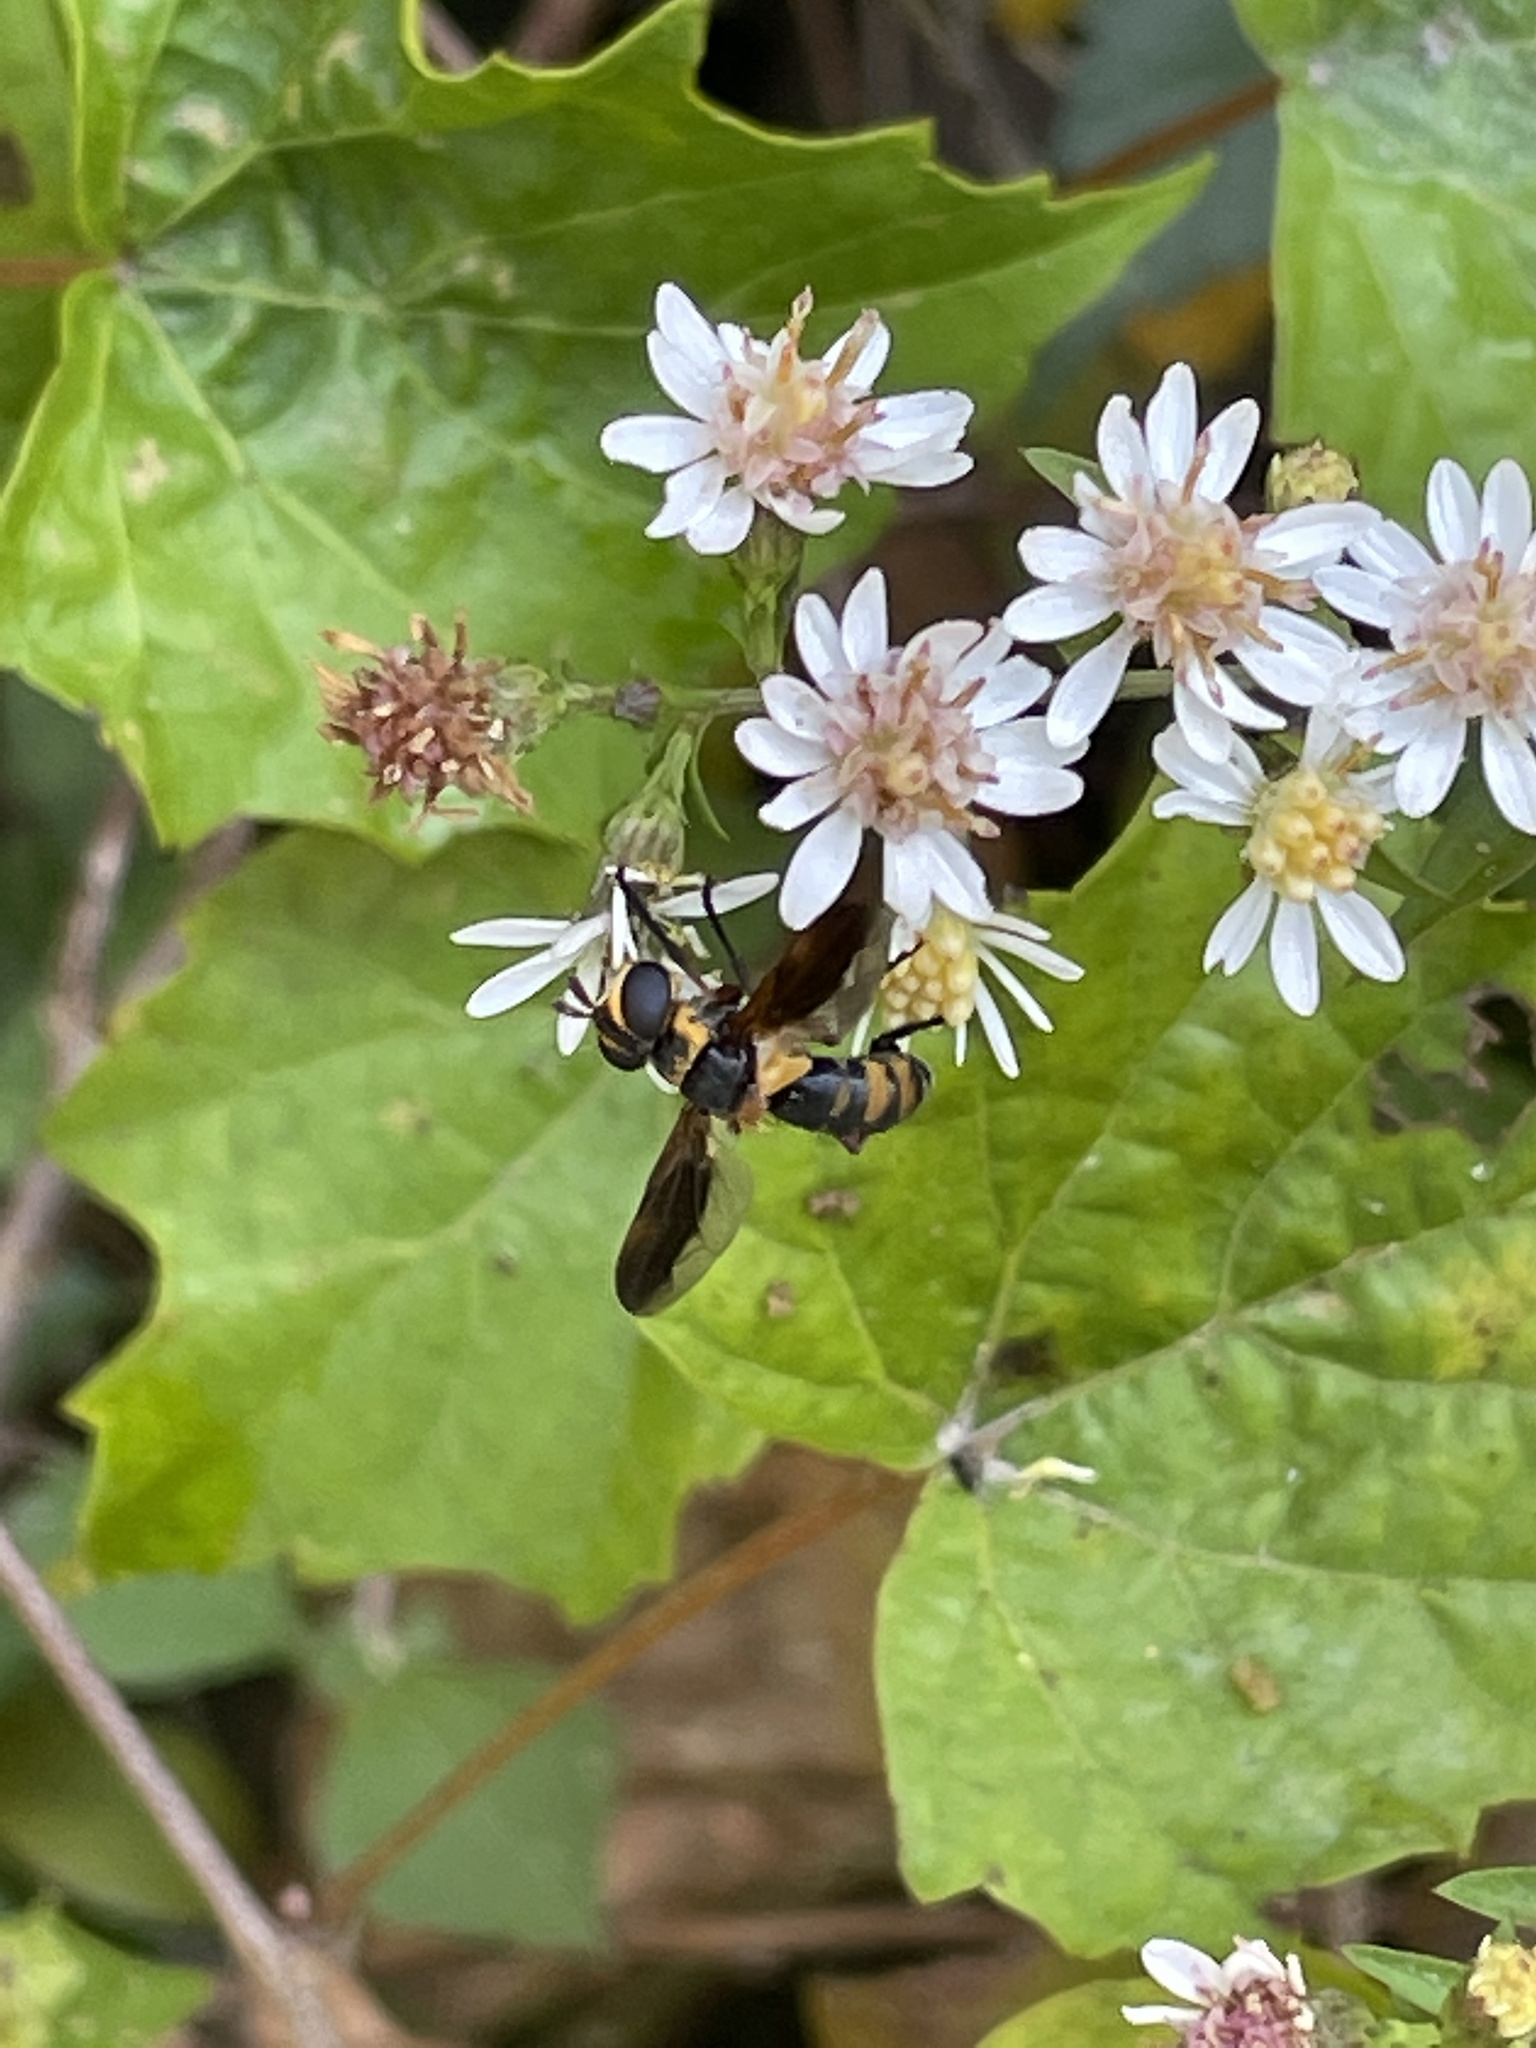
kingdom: Animalia
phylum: Arthropoda
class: Insecta
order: Diptera
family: Tachinidae
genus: Trichopoda
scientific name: Trichopoda plumipes
